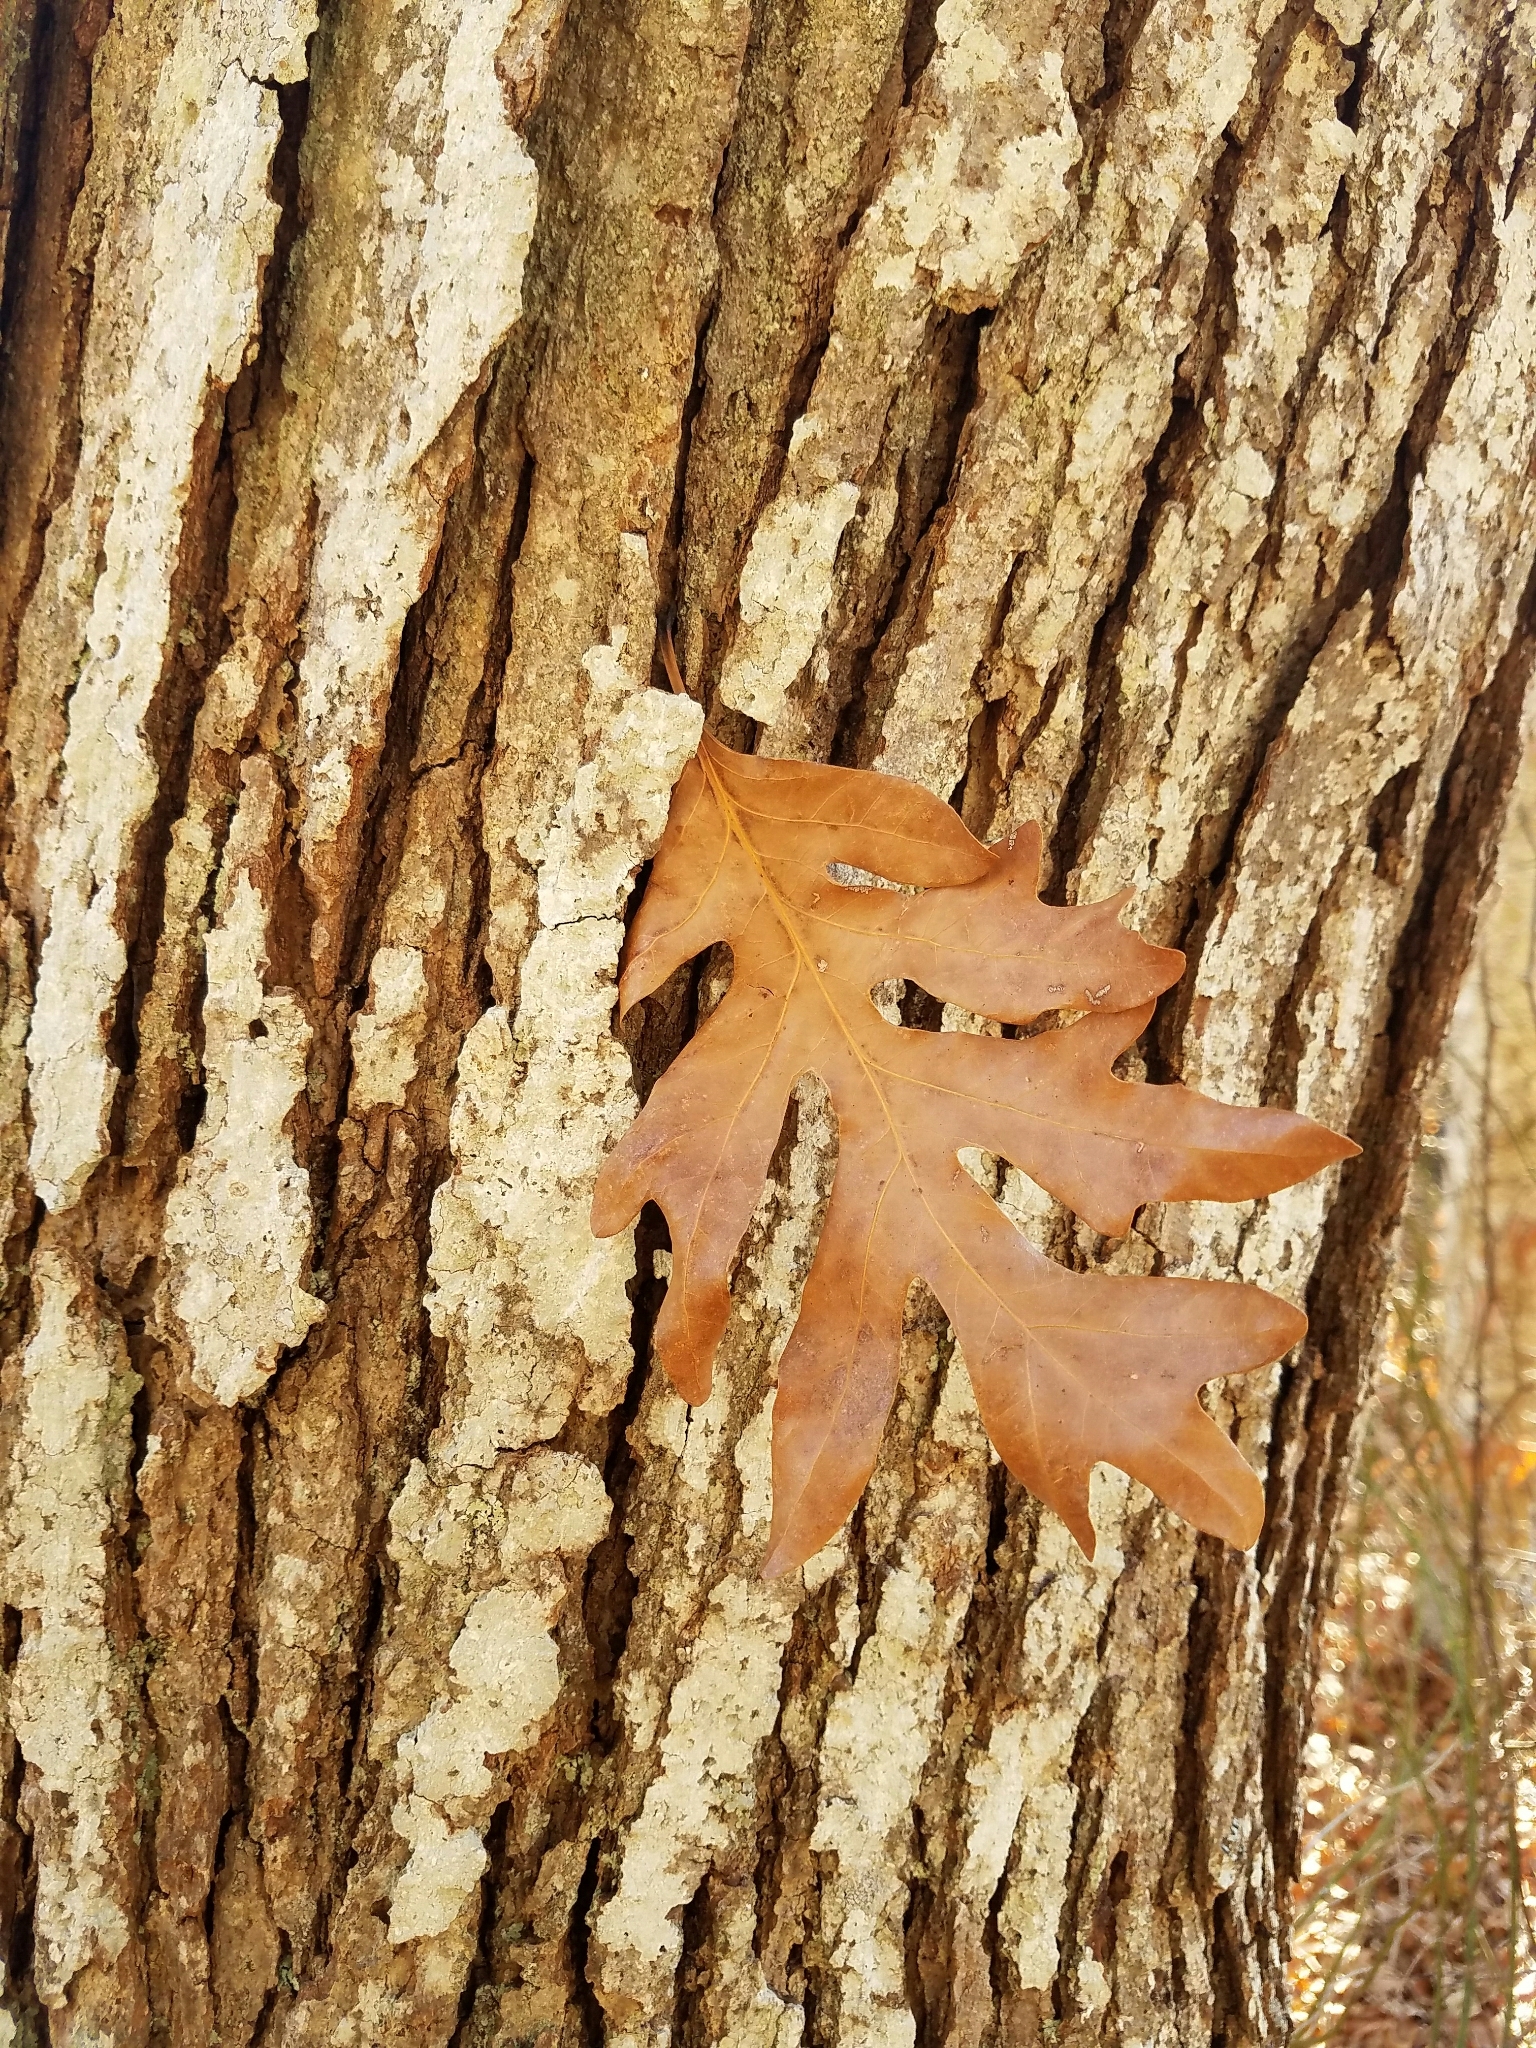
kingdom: Plantae
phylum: Tracheophyta
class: Magnoliopsida
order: Fagales
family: Fagaceae
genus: Quercus
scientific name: Quercus alba
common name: White oak
